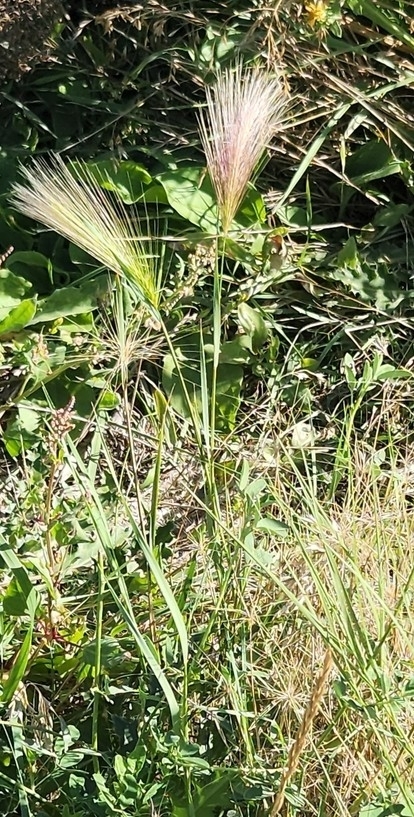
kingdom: Plantae
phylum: Tracheophyta
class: Liliopsida
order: Poales
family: Poaceae
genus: Hordeum
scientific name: Hordeum jubatum
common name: Foxtail barley
